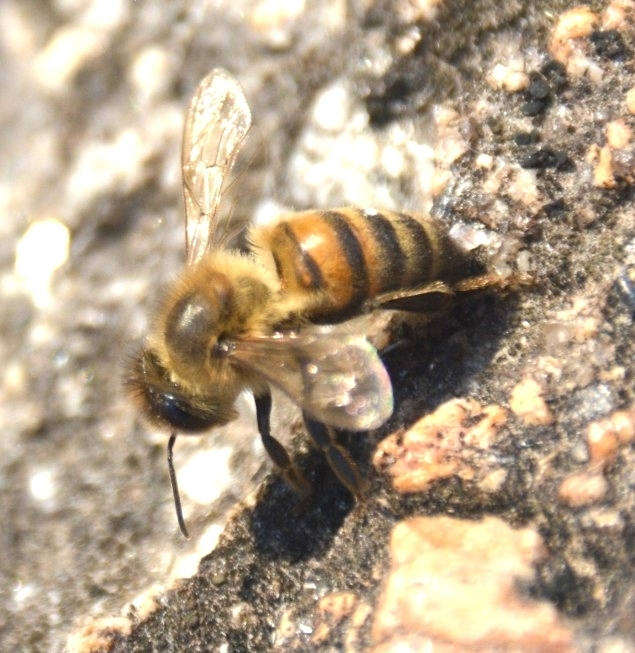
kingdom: Animalia
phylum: Arthropoda
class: Insecta
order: Hymenoptera
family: Apidae
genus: Apis
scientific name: Apis mellifera
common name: Honey bee
